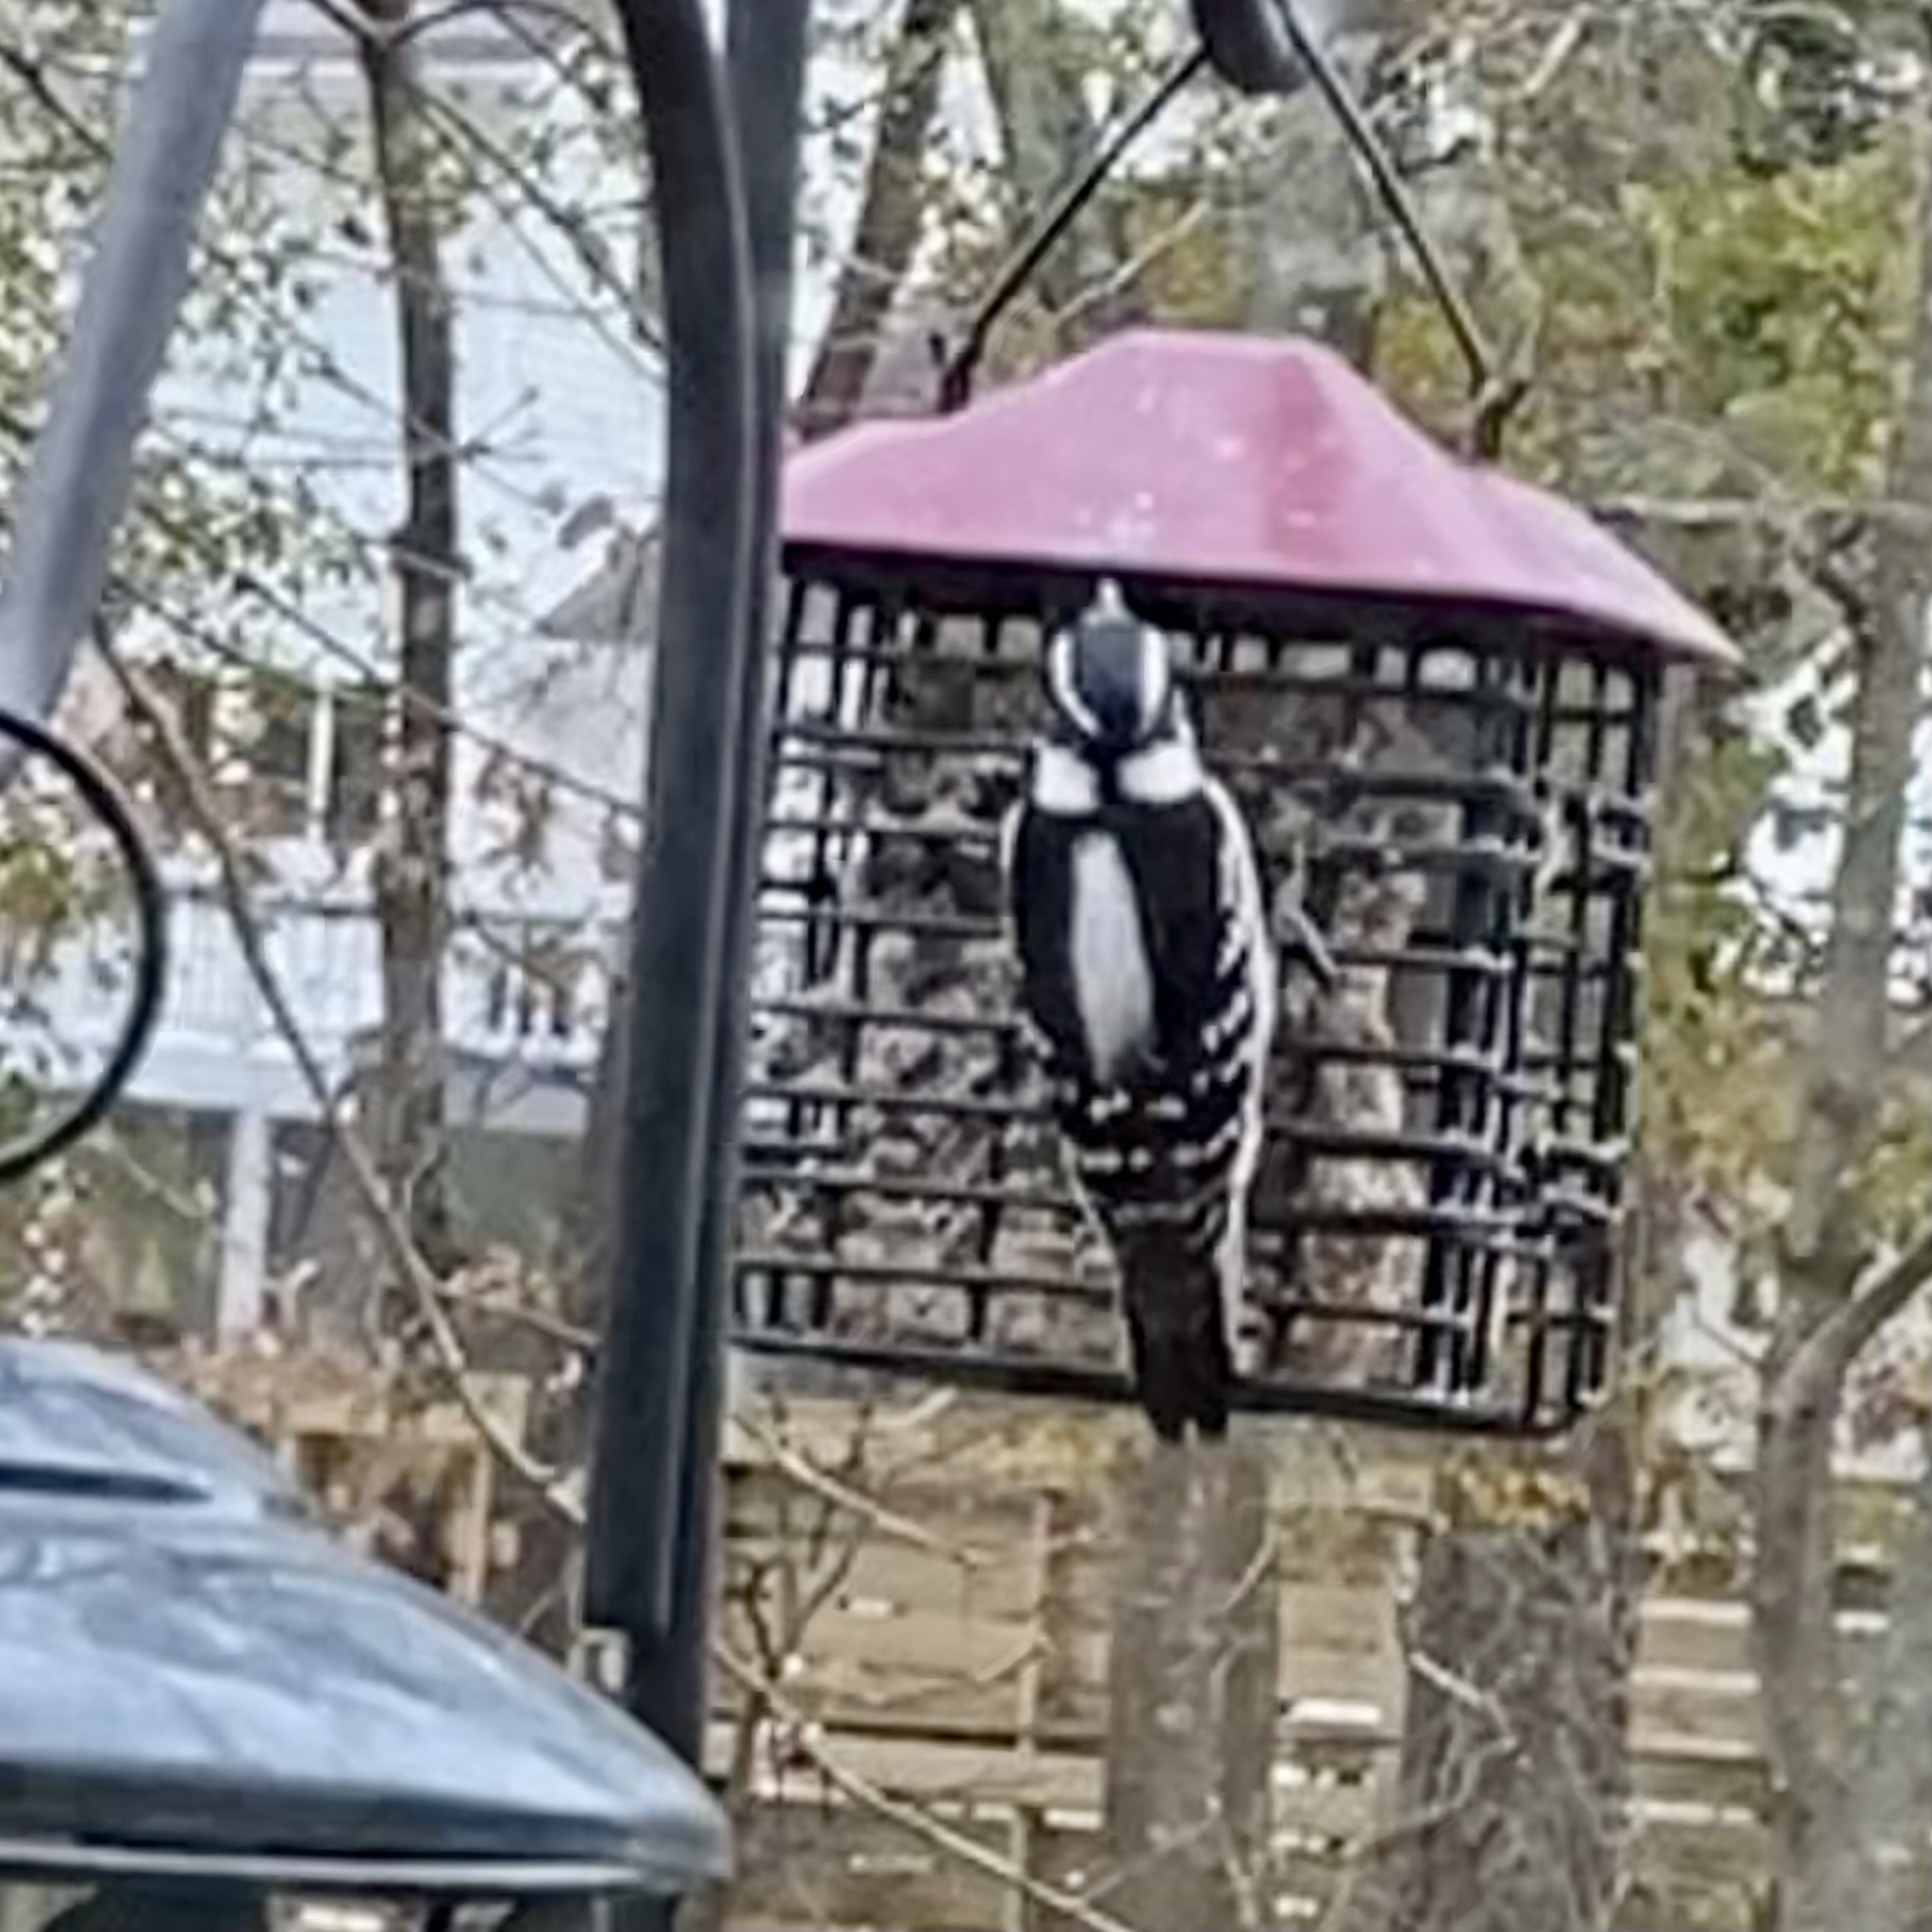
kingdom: Animalia
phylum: Chordata
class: Aves
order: Piciformes
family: Picidae
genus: Dryobates
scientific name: Dryobates pubescens
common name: Downy woodpecker
